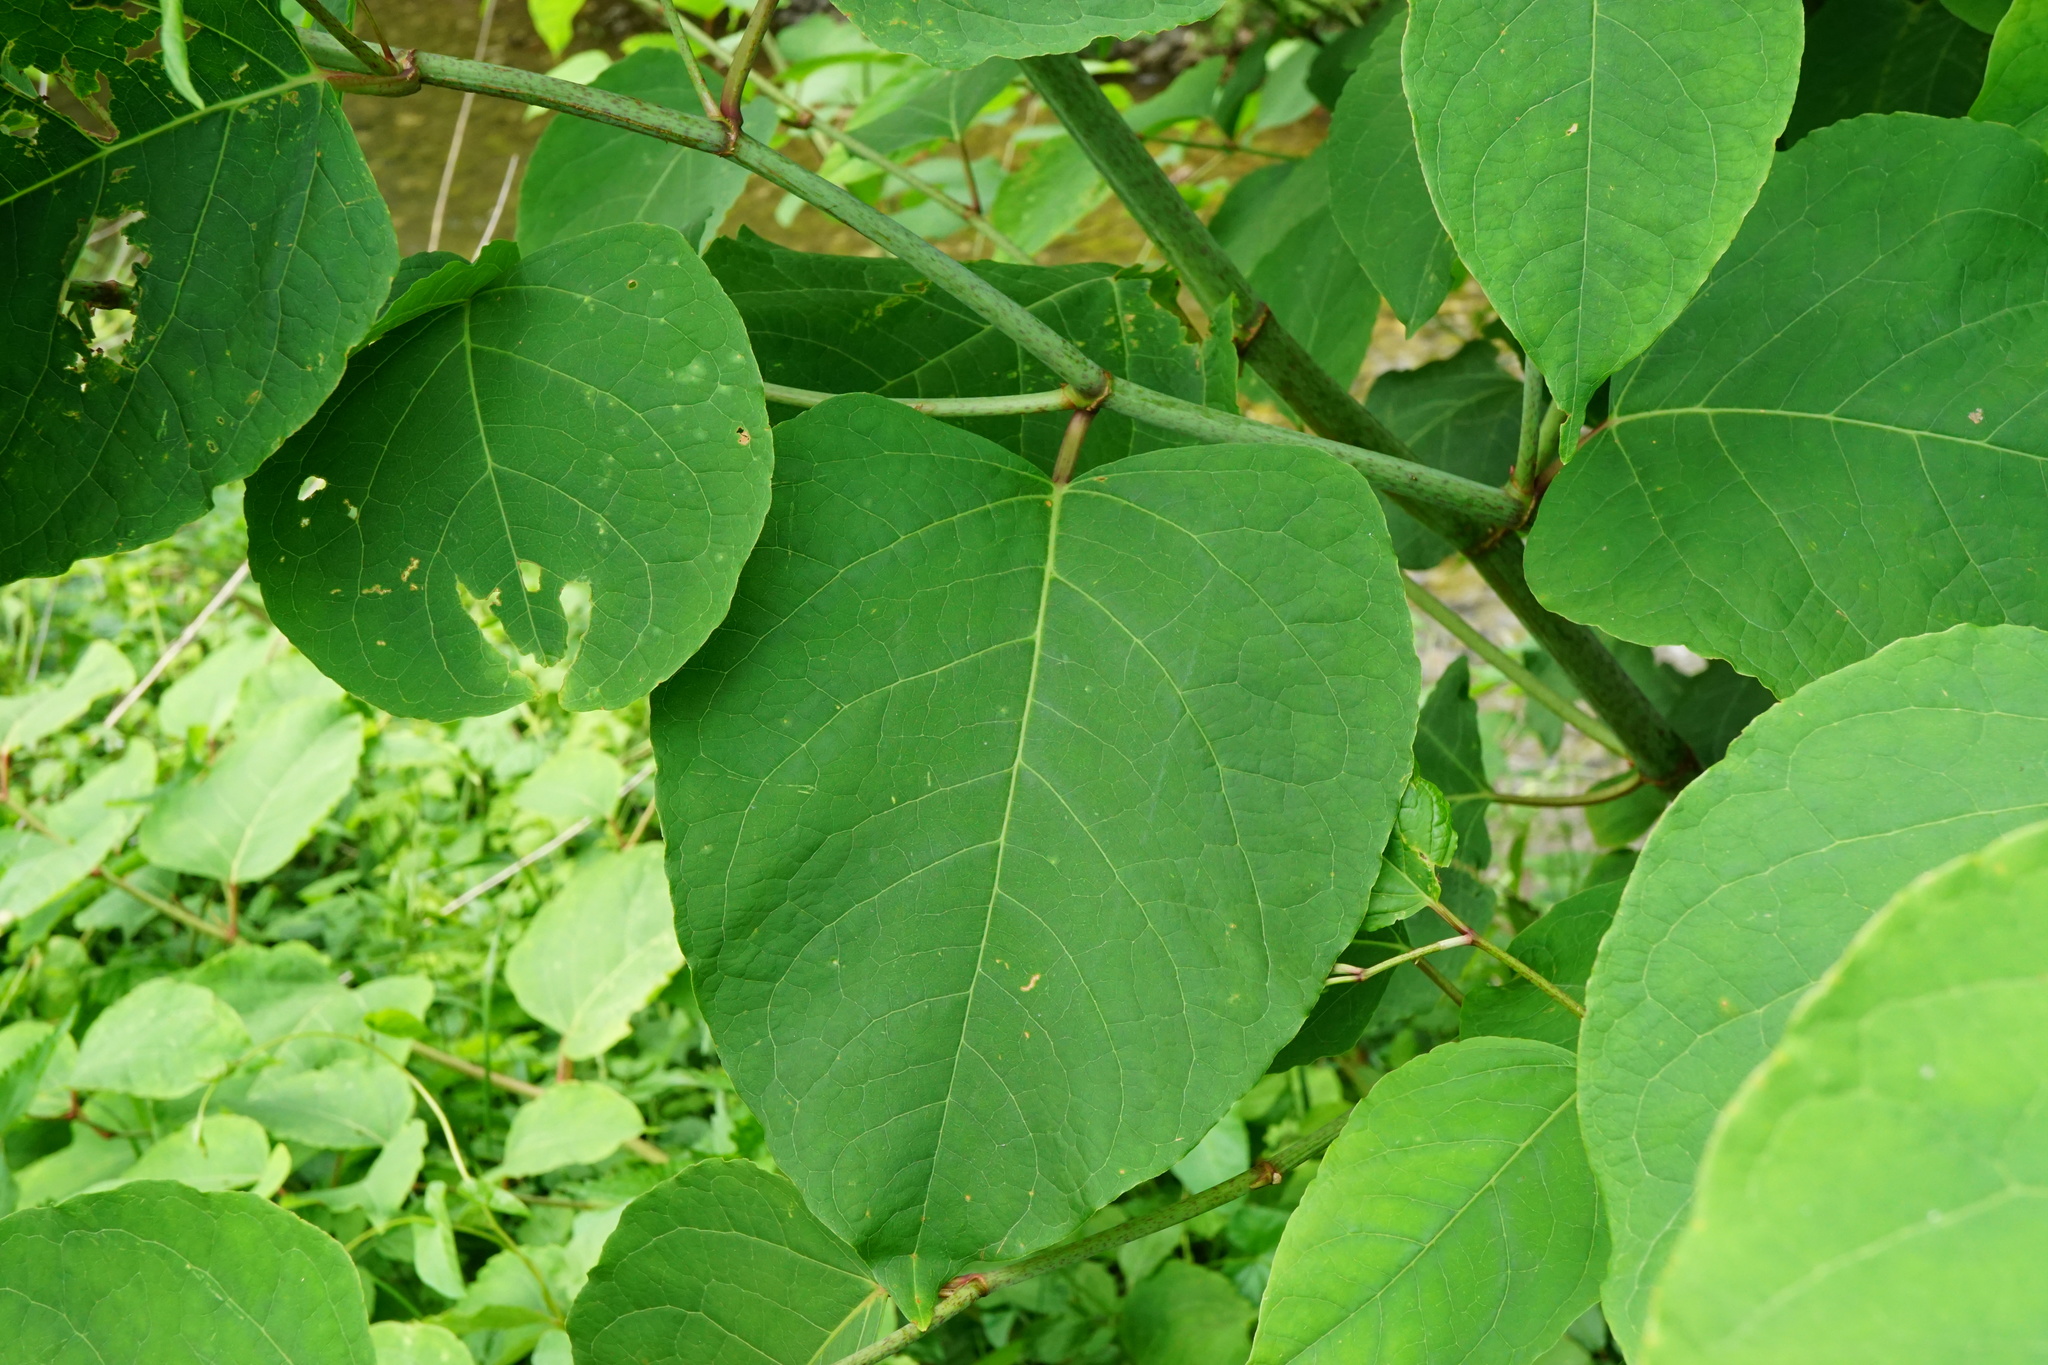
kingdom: Plantae
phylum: Tracheophyta
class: Magnoliopsida
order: Caryophyllales
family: Polygonaceae
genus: Reynoutria
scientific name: Reynoutria bohemica
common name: Bohemian knotweed
